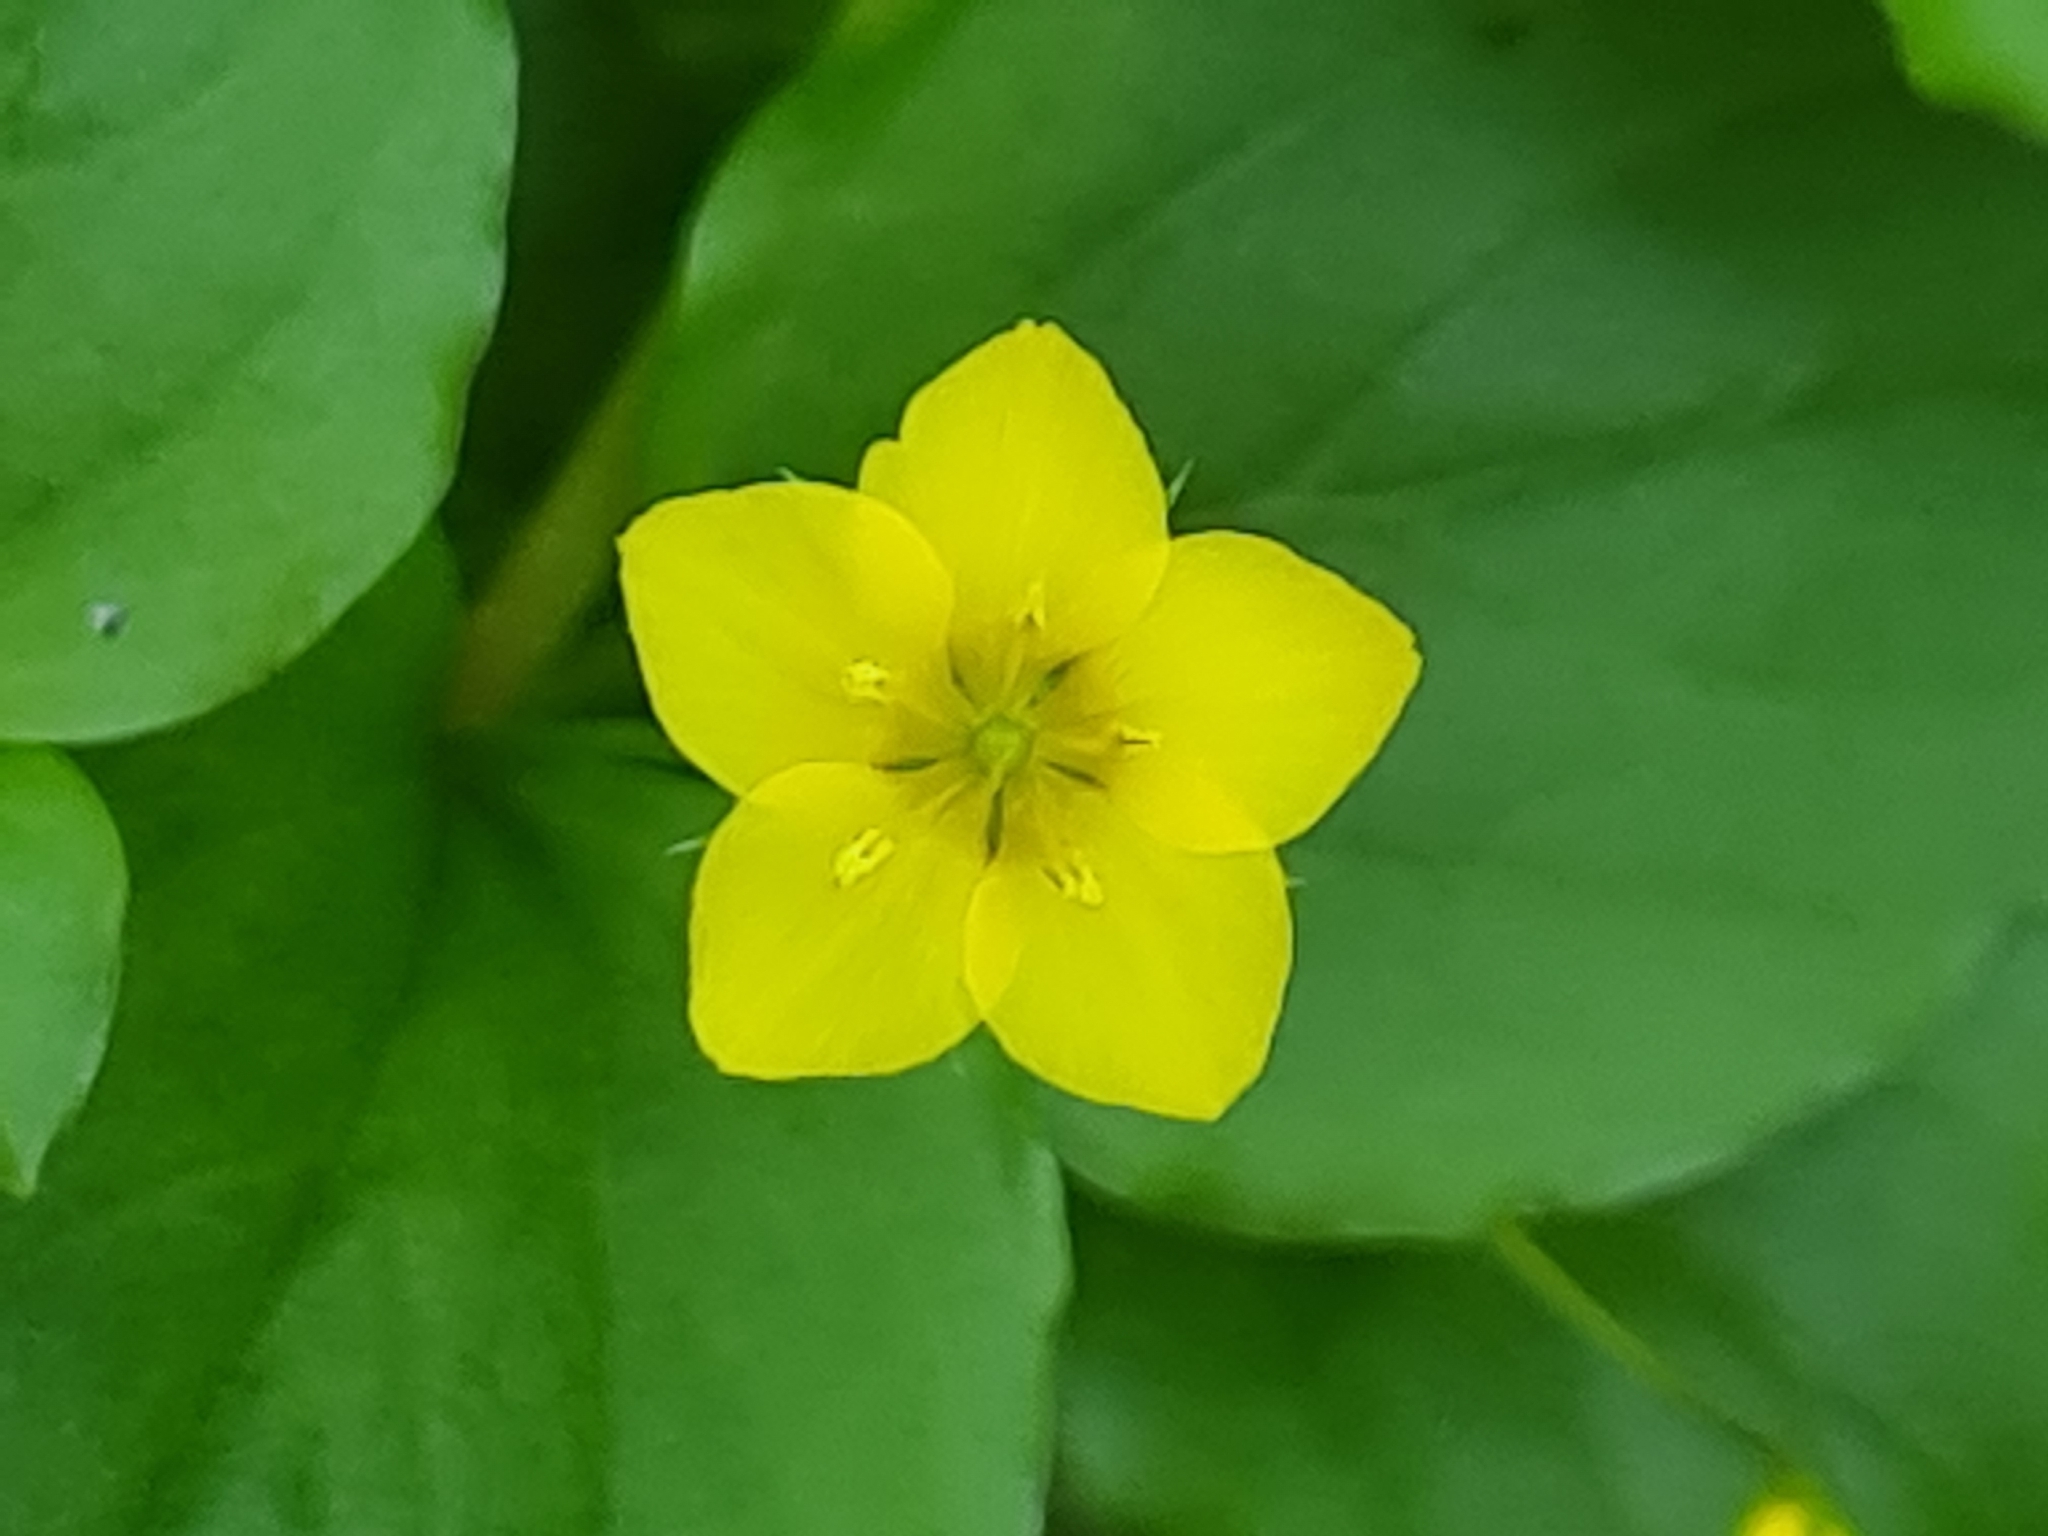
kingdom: Plantae
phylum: Tracheophyta
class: Magnoliopsida
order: Ericales
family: Primulaceae
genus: Lysimachia
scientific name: Lysimachia nemorum
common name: Yellow pimpernel
